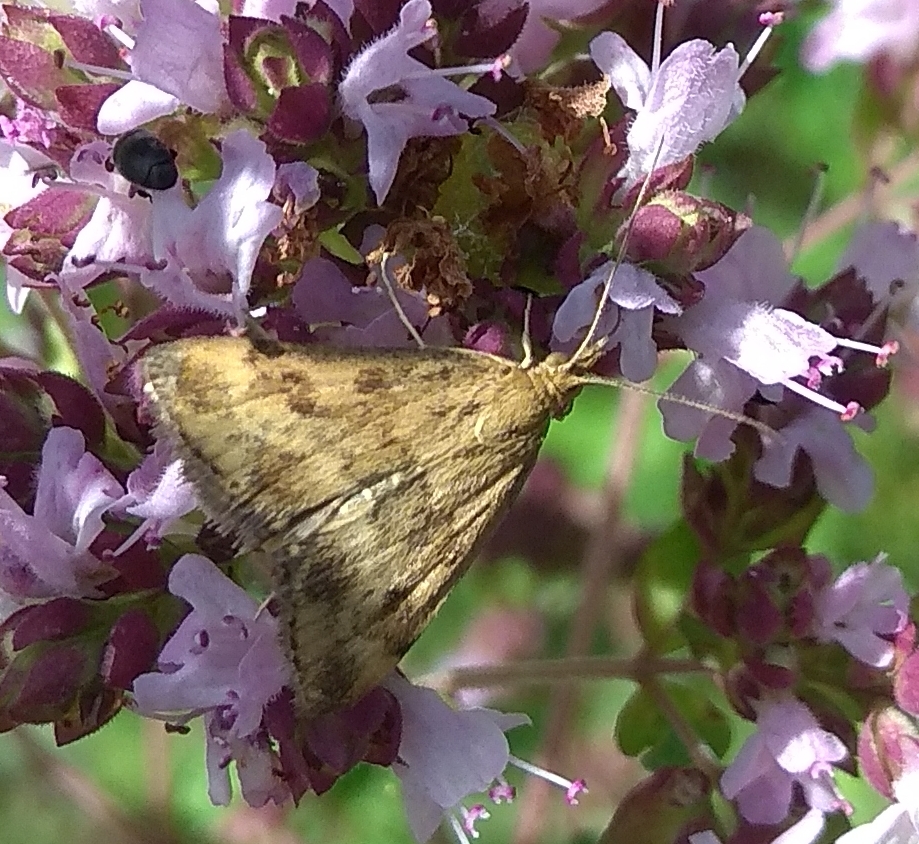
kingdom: Animalia
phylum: Arthropoda
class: Insecta
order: Lepidoptera
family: Crambidae
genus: Pyrausta
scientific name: Pyrausta despicata
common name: Straw-barred pearl
